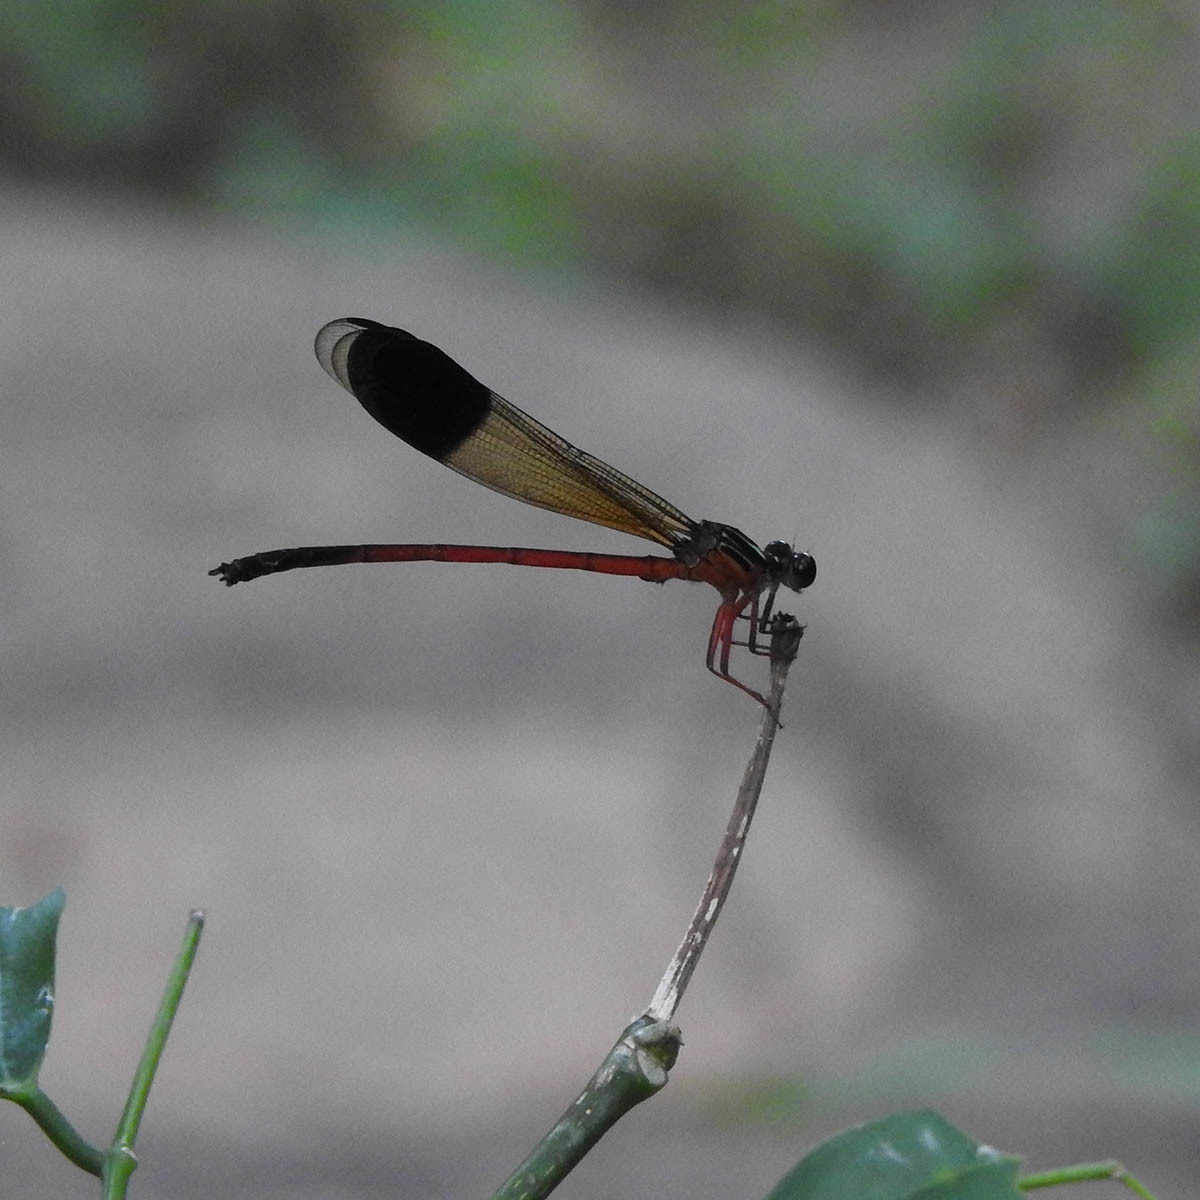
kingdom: Animalia
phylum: Arthropoda
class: Insecta
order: Odonata
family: Euphaeidae
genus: Euphaea
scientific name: Euphaea fraseri
